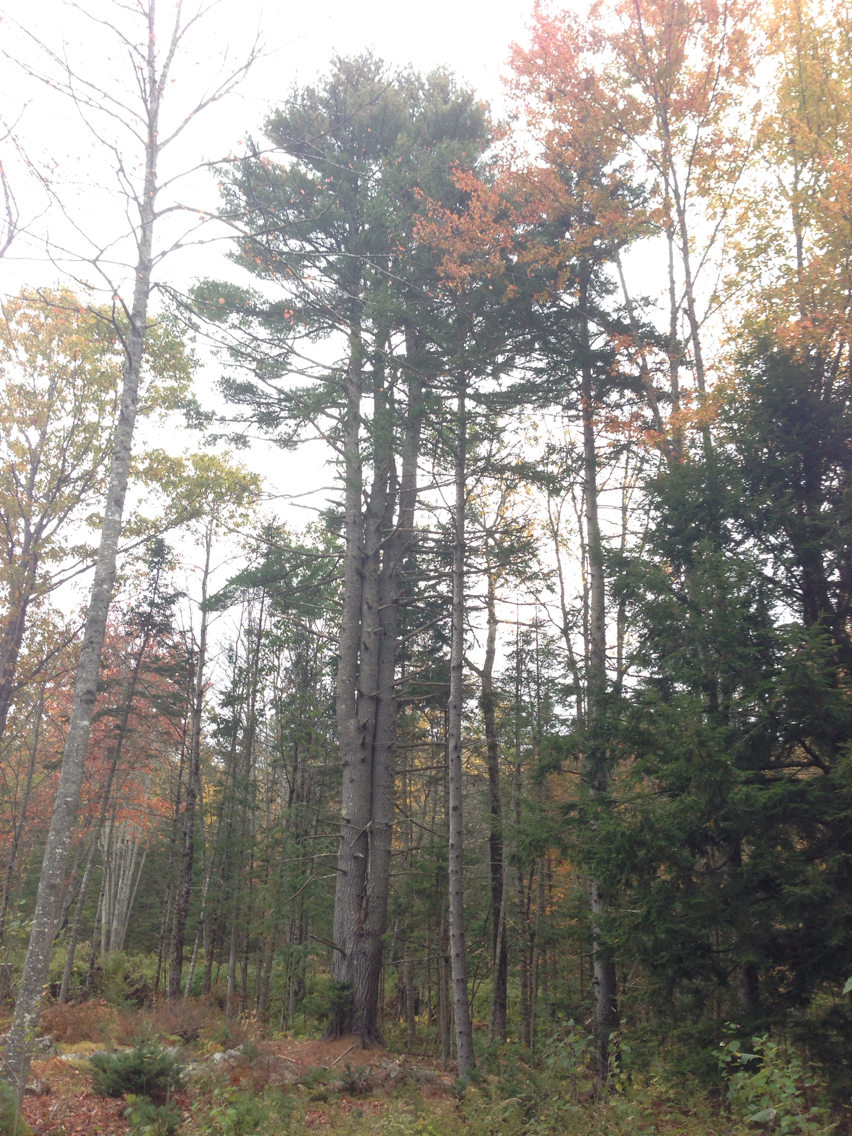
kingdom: Plantae
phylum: Tracheophyta
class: Pinopsida
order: Pinales
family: Pinaceae
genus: Pinus
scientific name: Pinus strobus
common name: Weymouth pine
